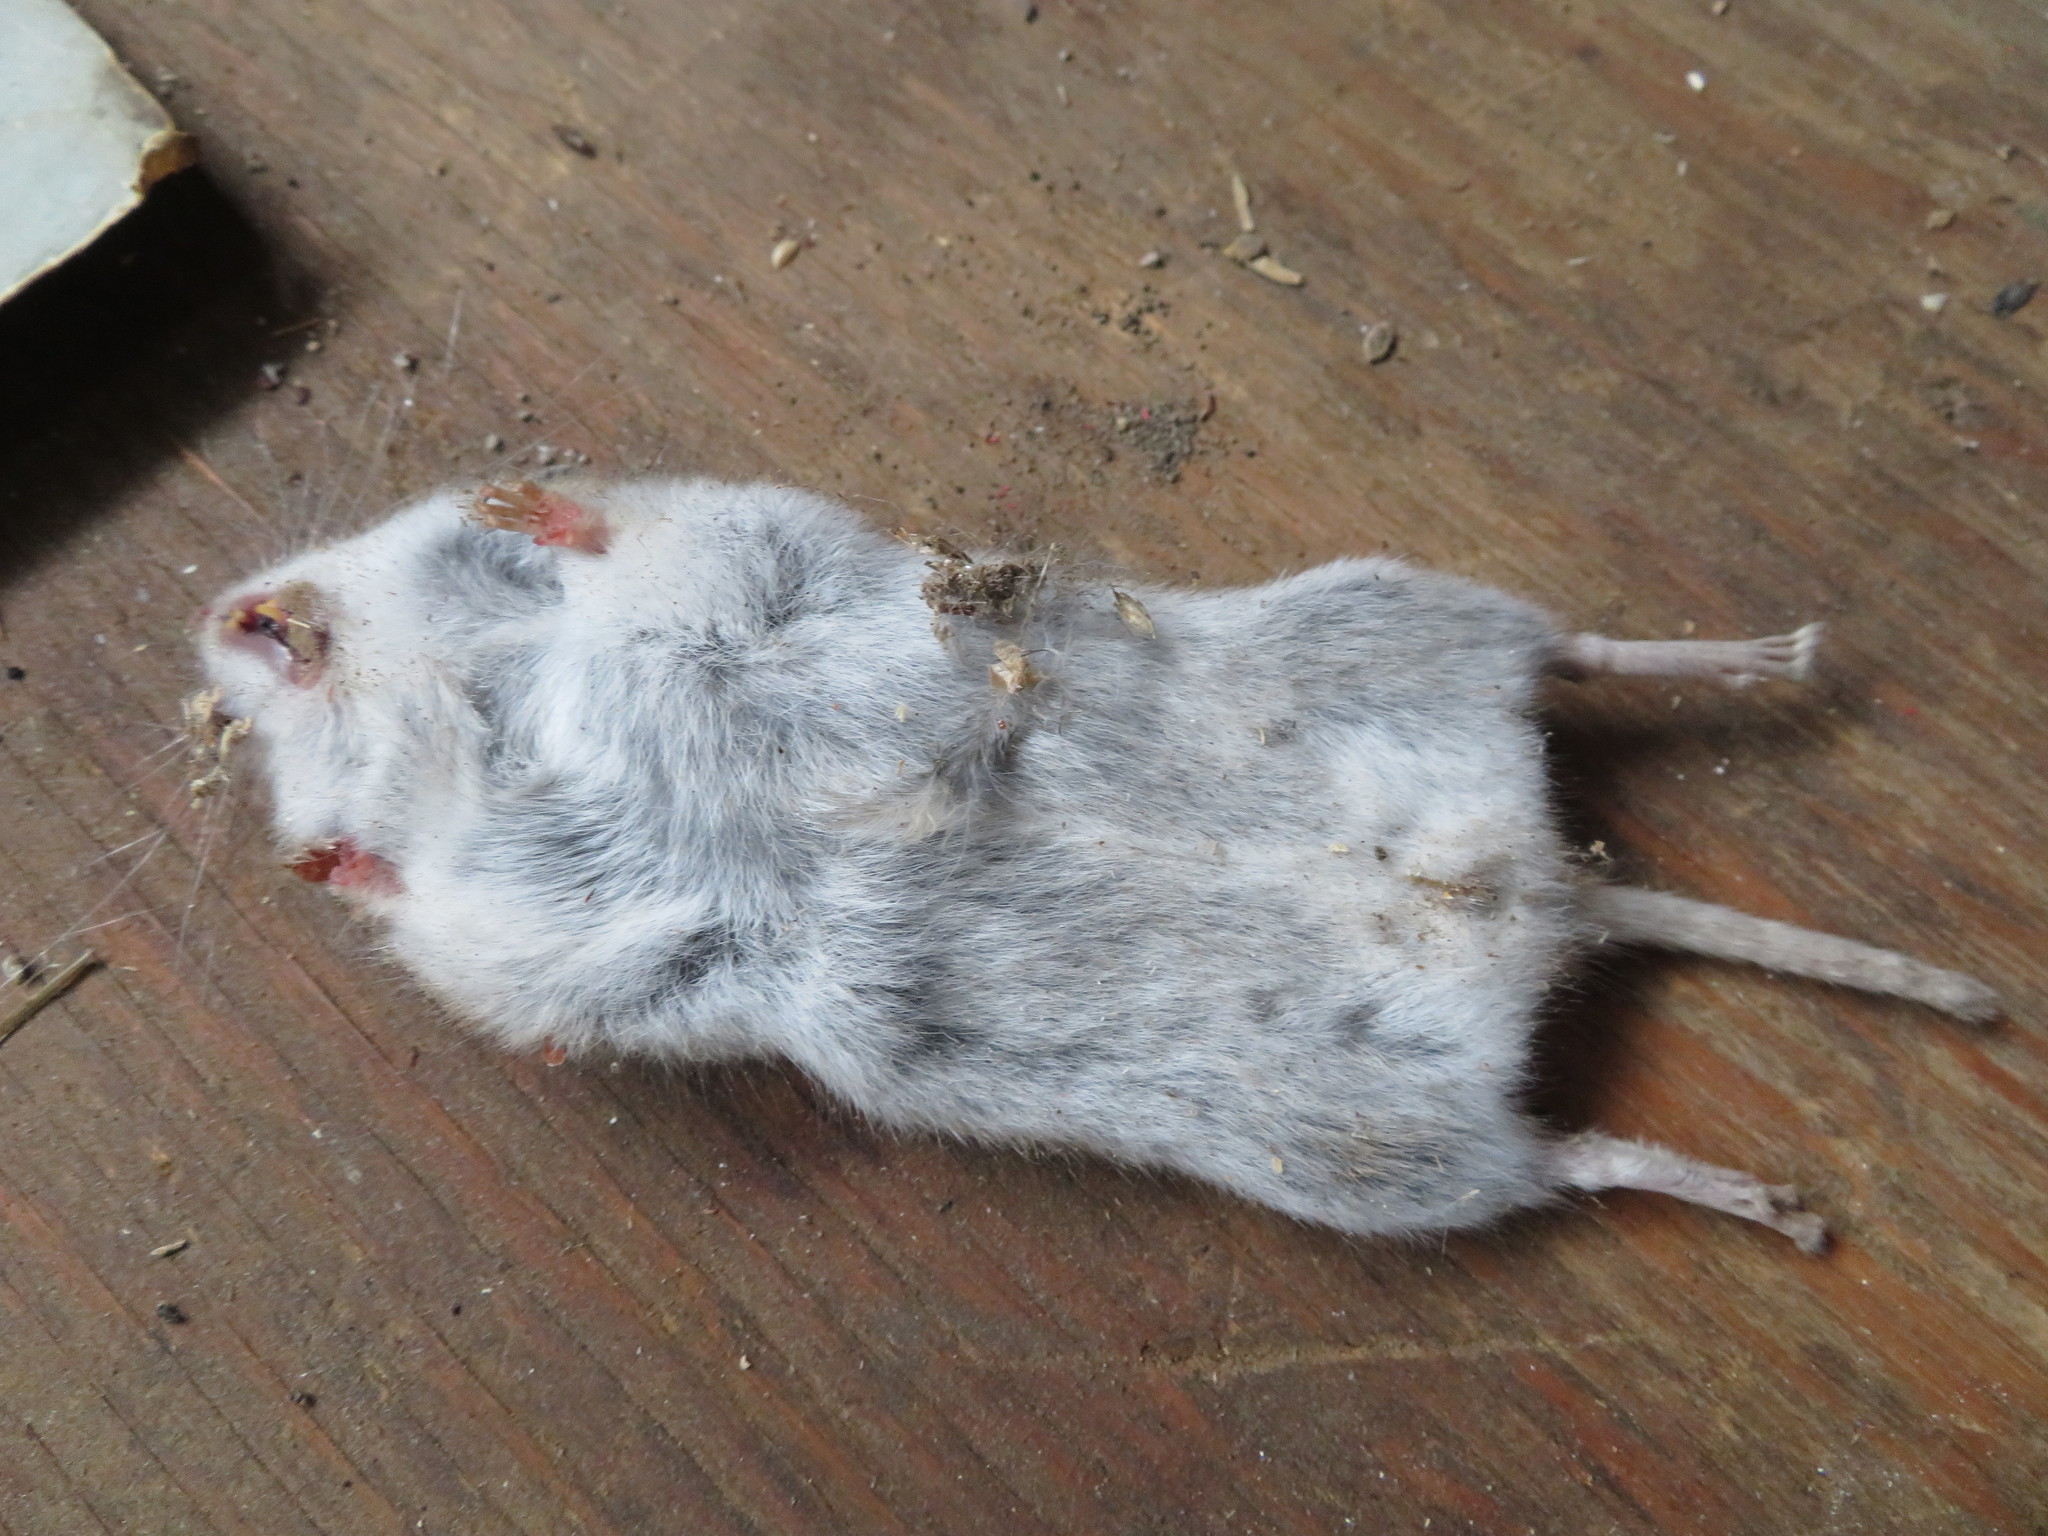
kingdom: Animalia
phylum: Chordata
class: Mammalia
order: Rodentia
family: Cricetidae
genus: Microtus
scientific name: Microtus pennsylvanicus
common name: Meadow vole
